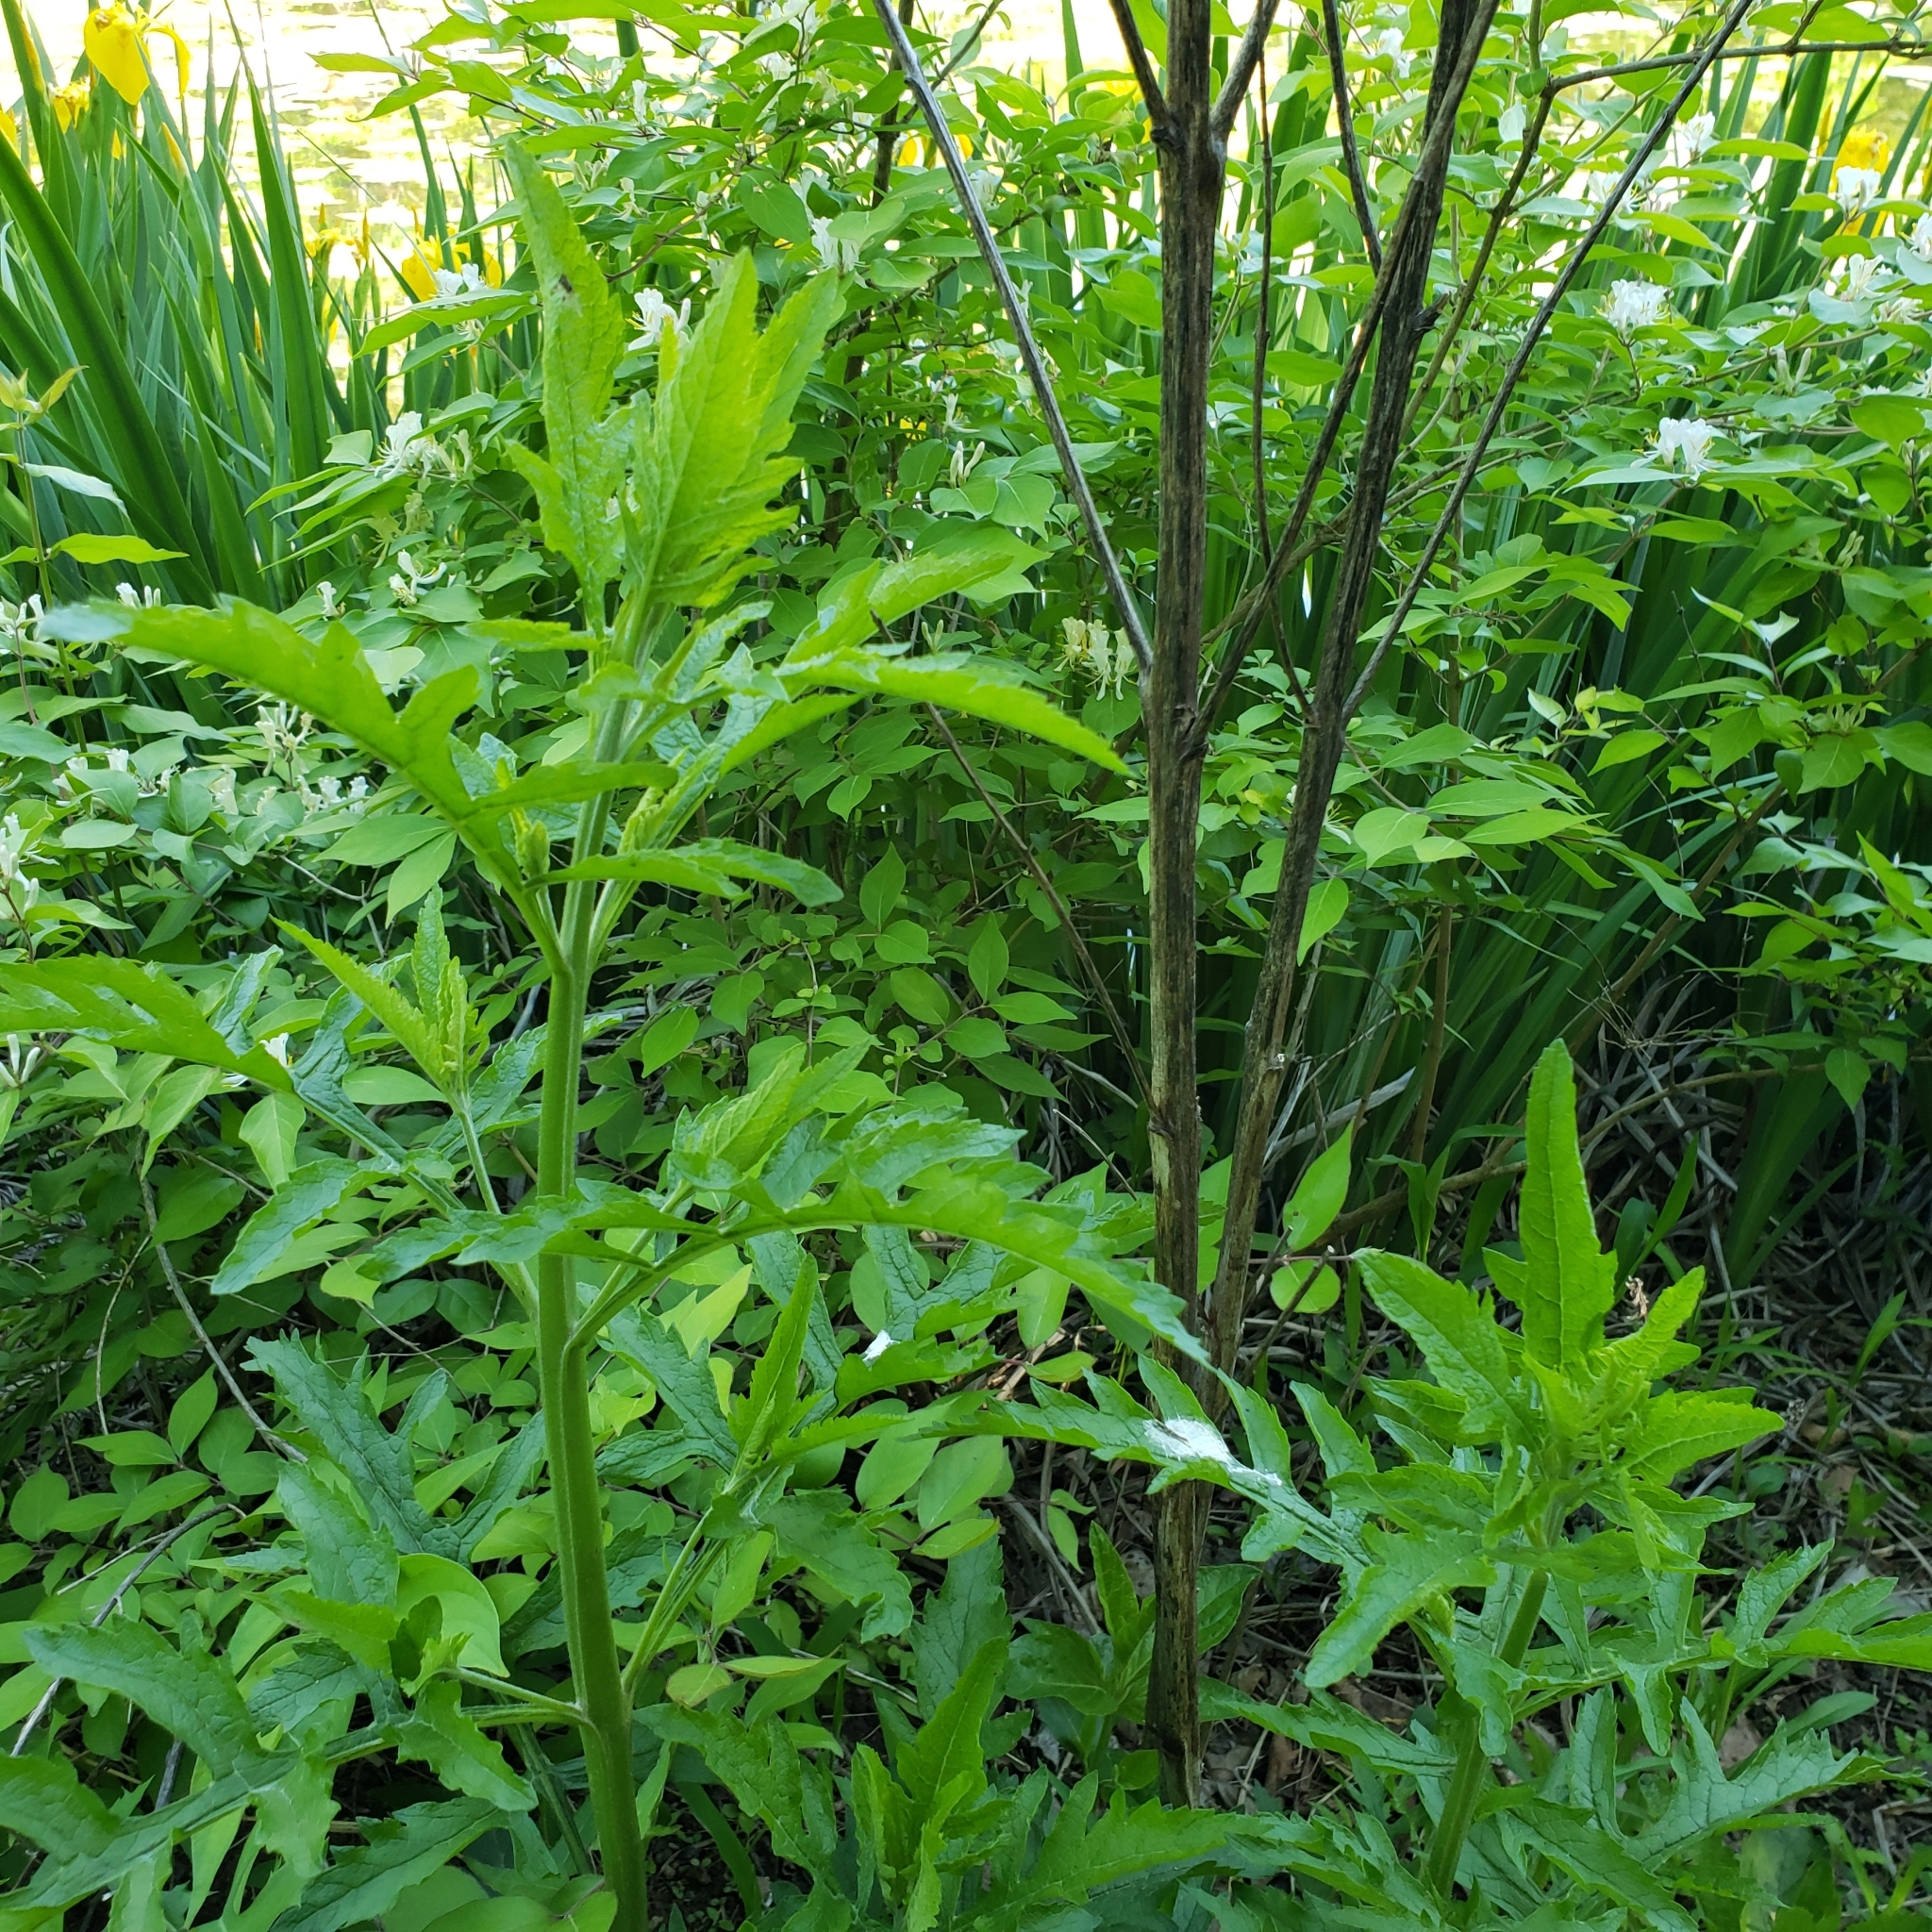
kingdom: Plantae
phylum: Tracheophyta
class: Magnoliopsida
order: Lamiales
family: Orobanchaceae
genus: Dasistoma
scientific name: Dasistoma macrophyllum
